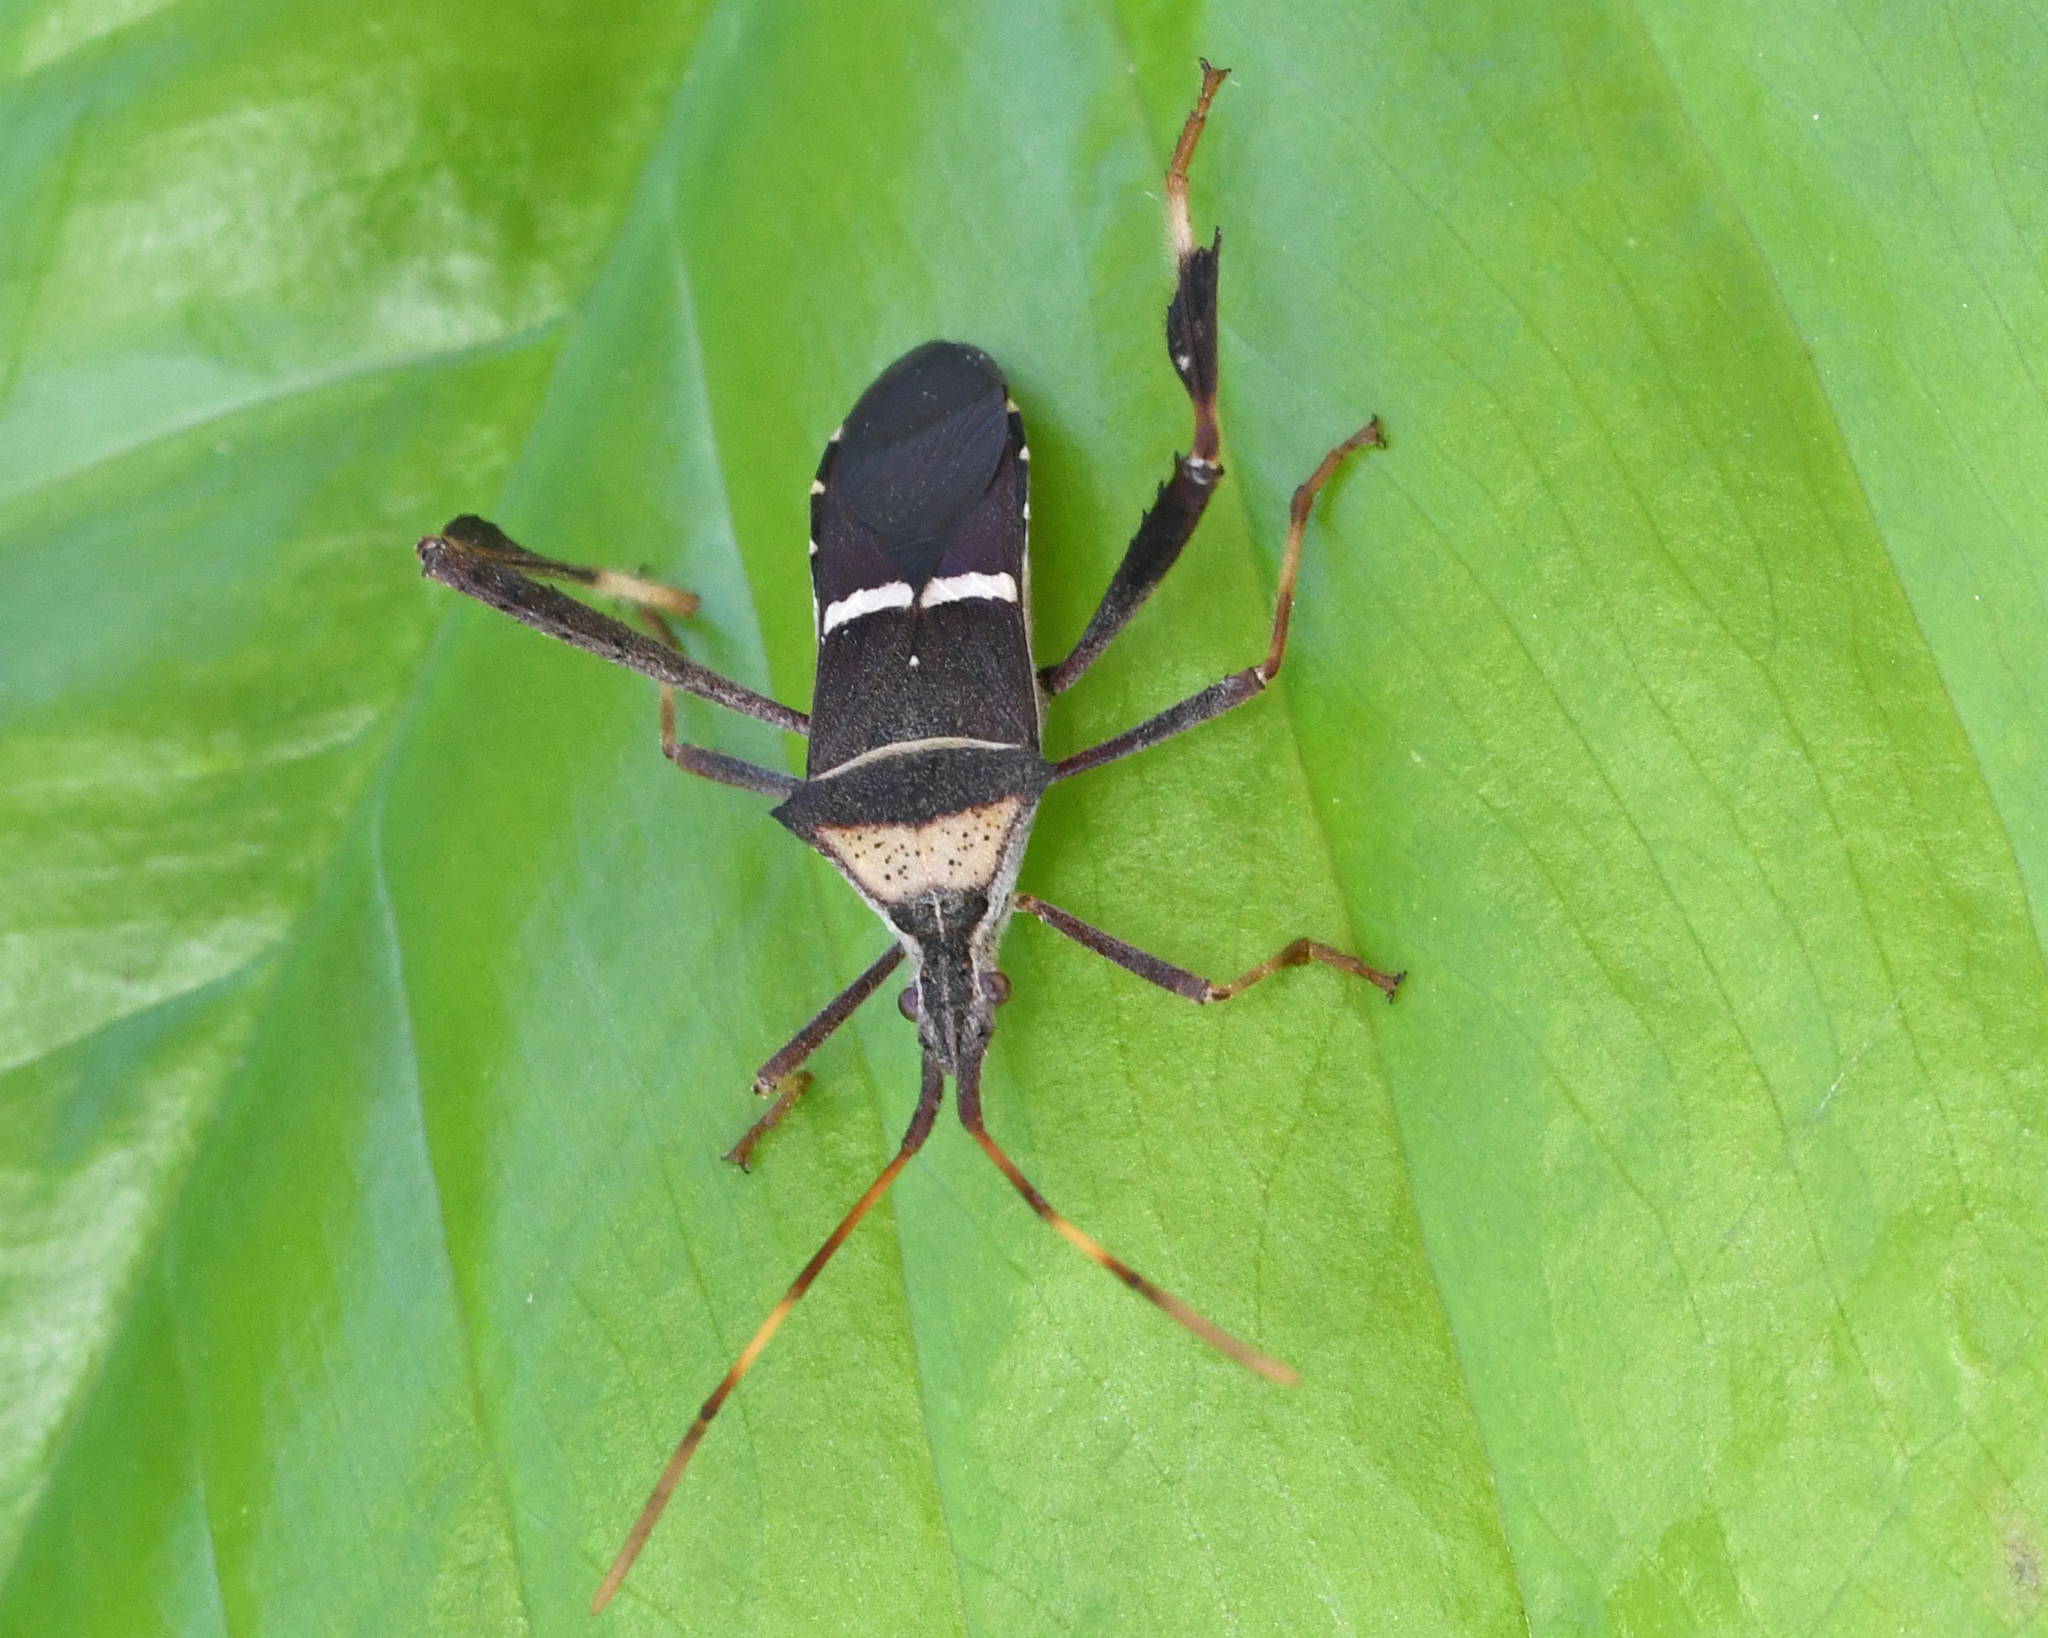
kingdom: Animalia
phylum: Arthropoda
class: Insecta
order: Hemiptera
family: Coreidae
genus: Leptoglossus
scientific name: Leptoglossus balteatus
